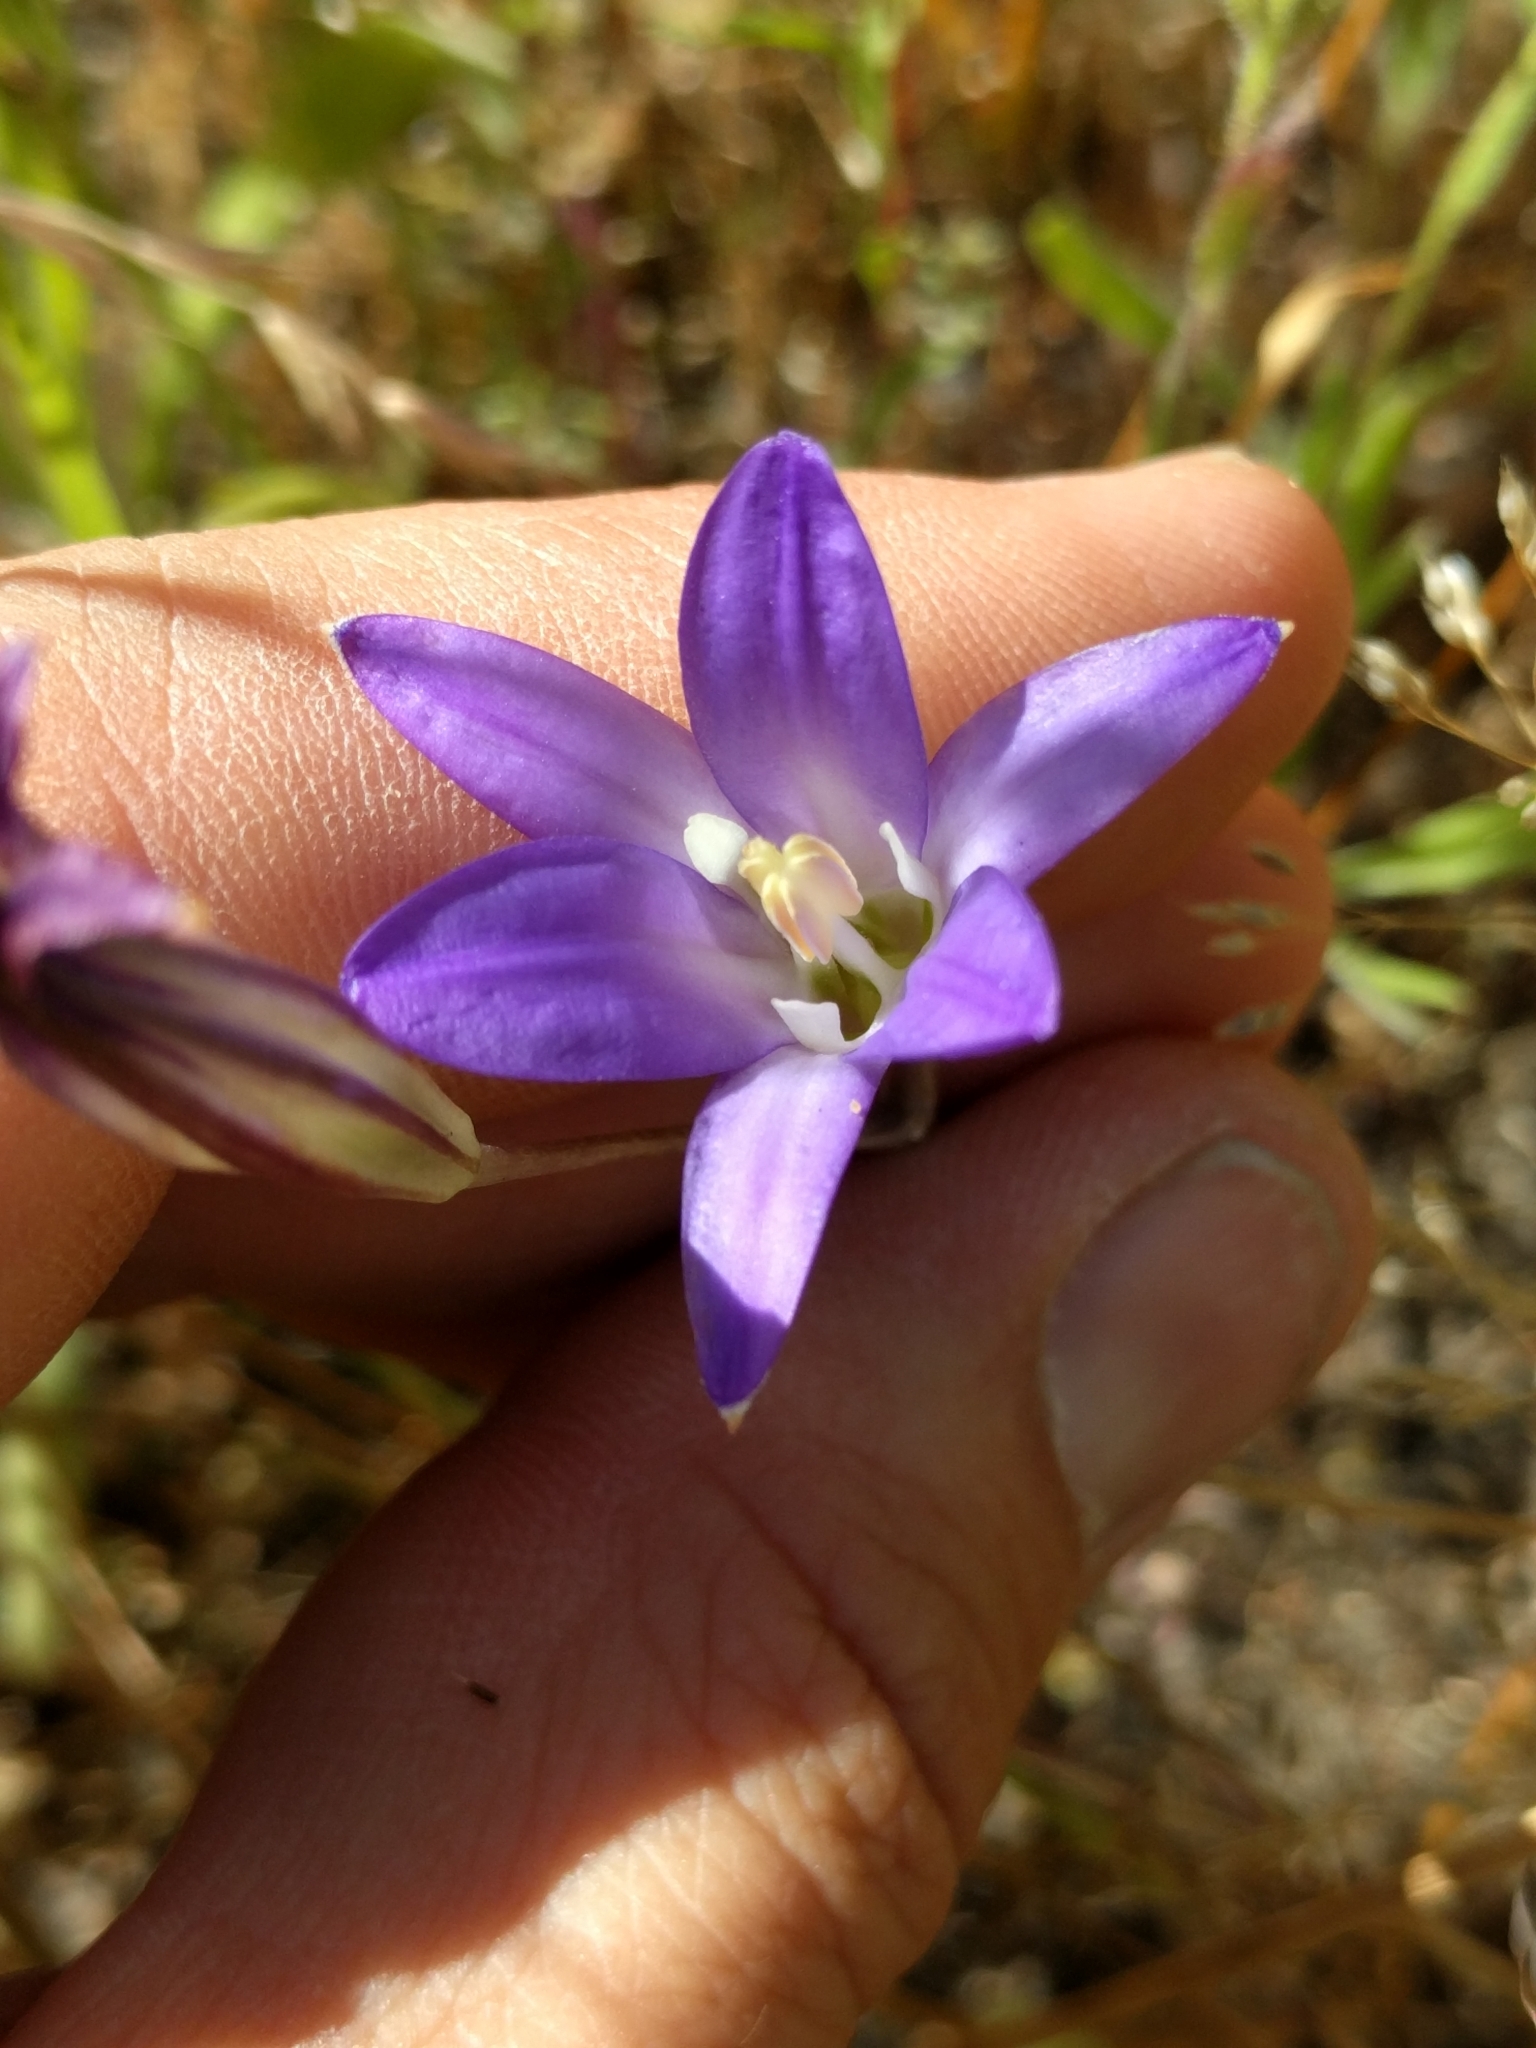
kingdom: Plantae
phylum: Tracheophyta
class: Liliopsida
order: Asparagales
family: Asparagaceae
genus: Brodiaea
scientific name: Brodiaea elegans
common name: Elegant cluster-lily
